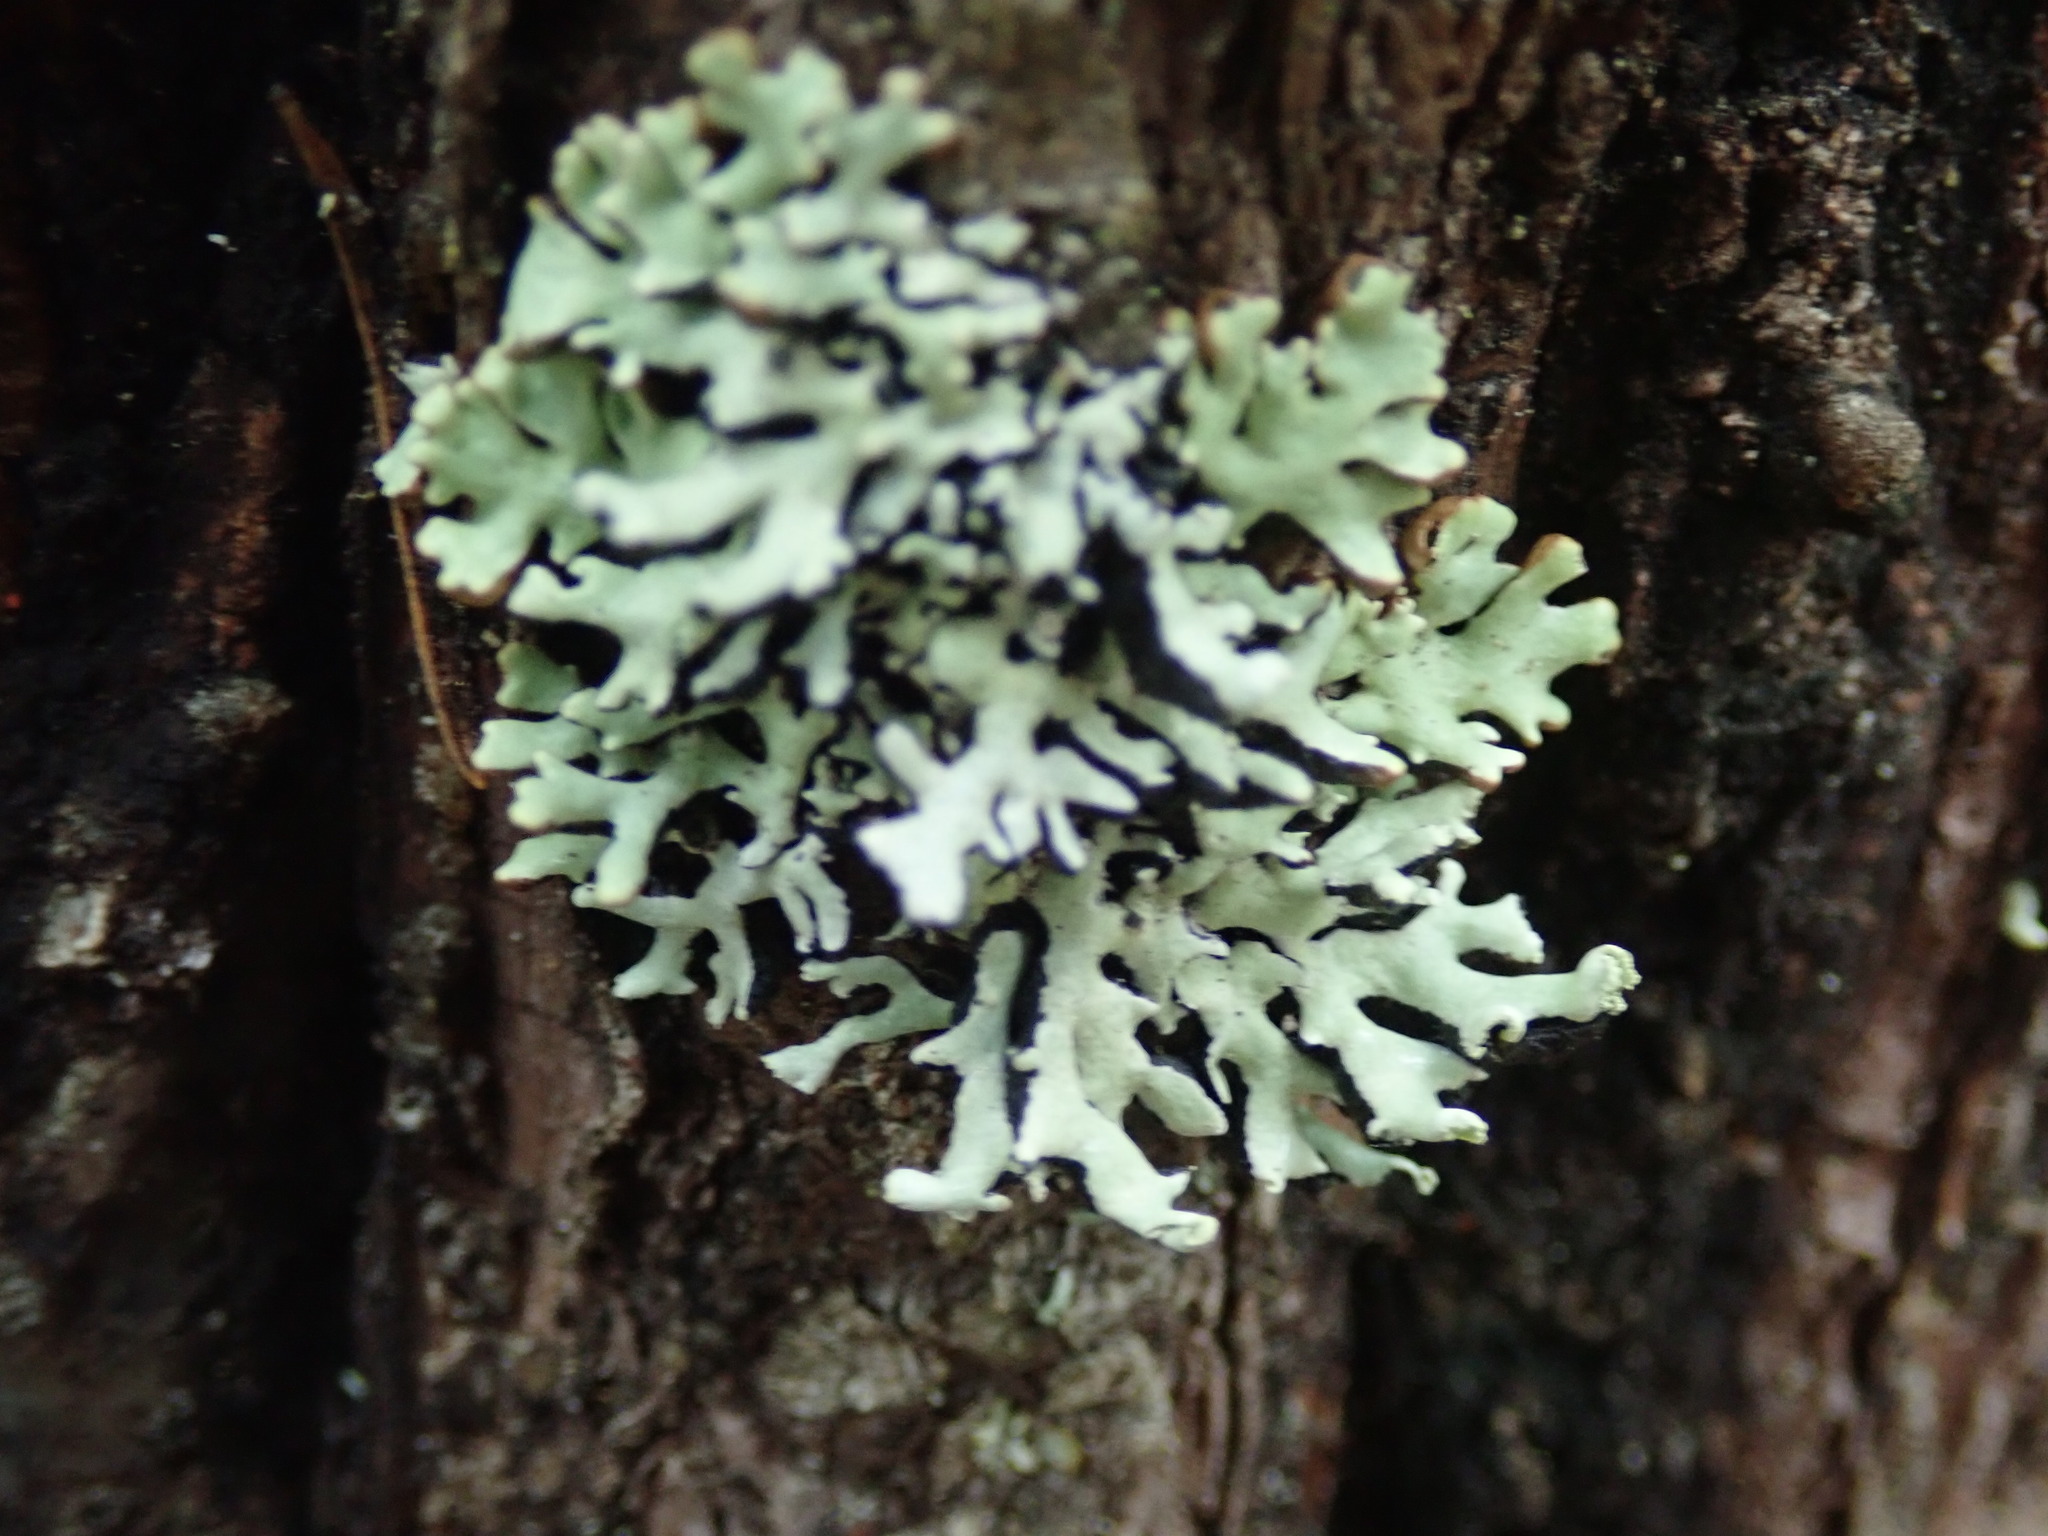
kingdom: Fungi
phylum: Ascomycota
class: Lecanoromycetes
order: Lecanorales
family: Parmeliaceae
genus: Hypogymnia
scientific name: Hypogymnia physodes
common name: Dark crottle
